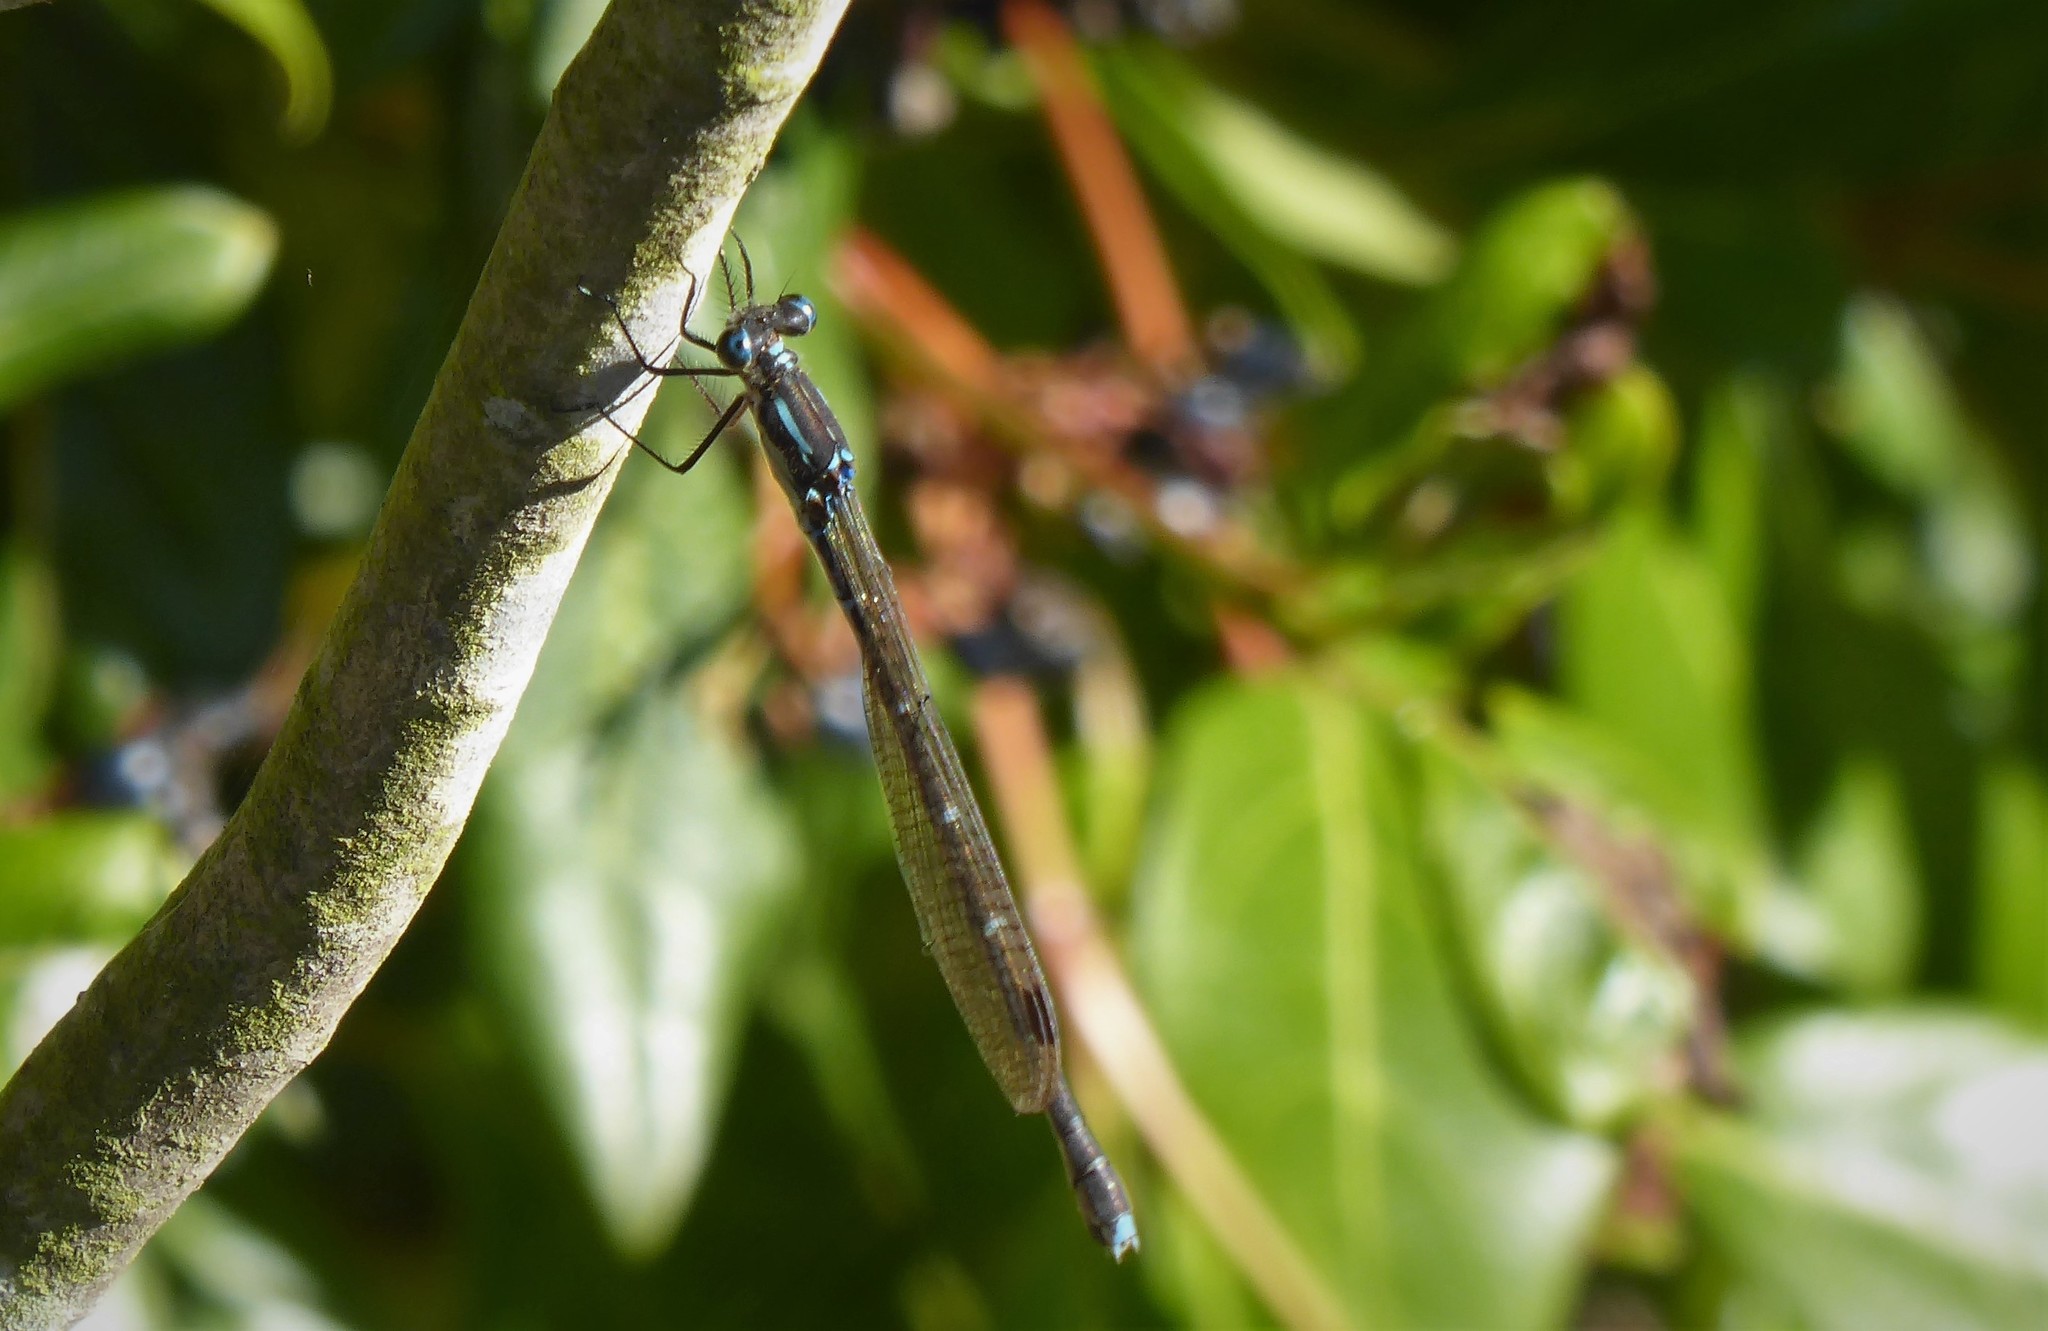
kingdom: Animalia
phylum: Arthropoda
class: Insecta
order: Odonata
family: Lestidae
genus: Austrolestes
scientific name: Austrolestes colensonis
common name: Blue damselfly
